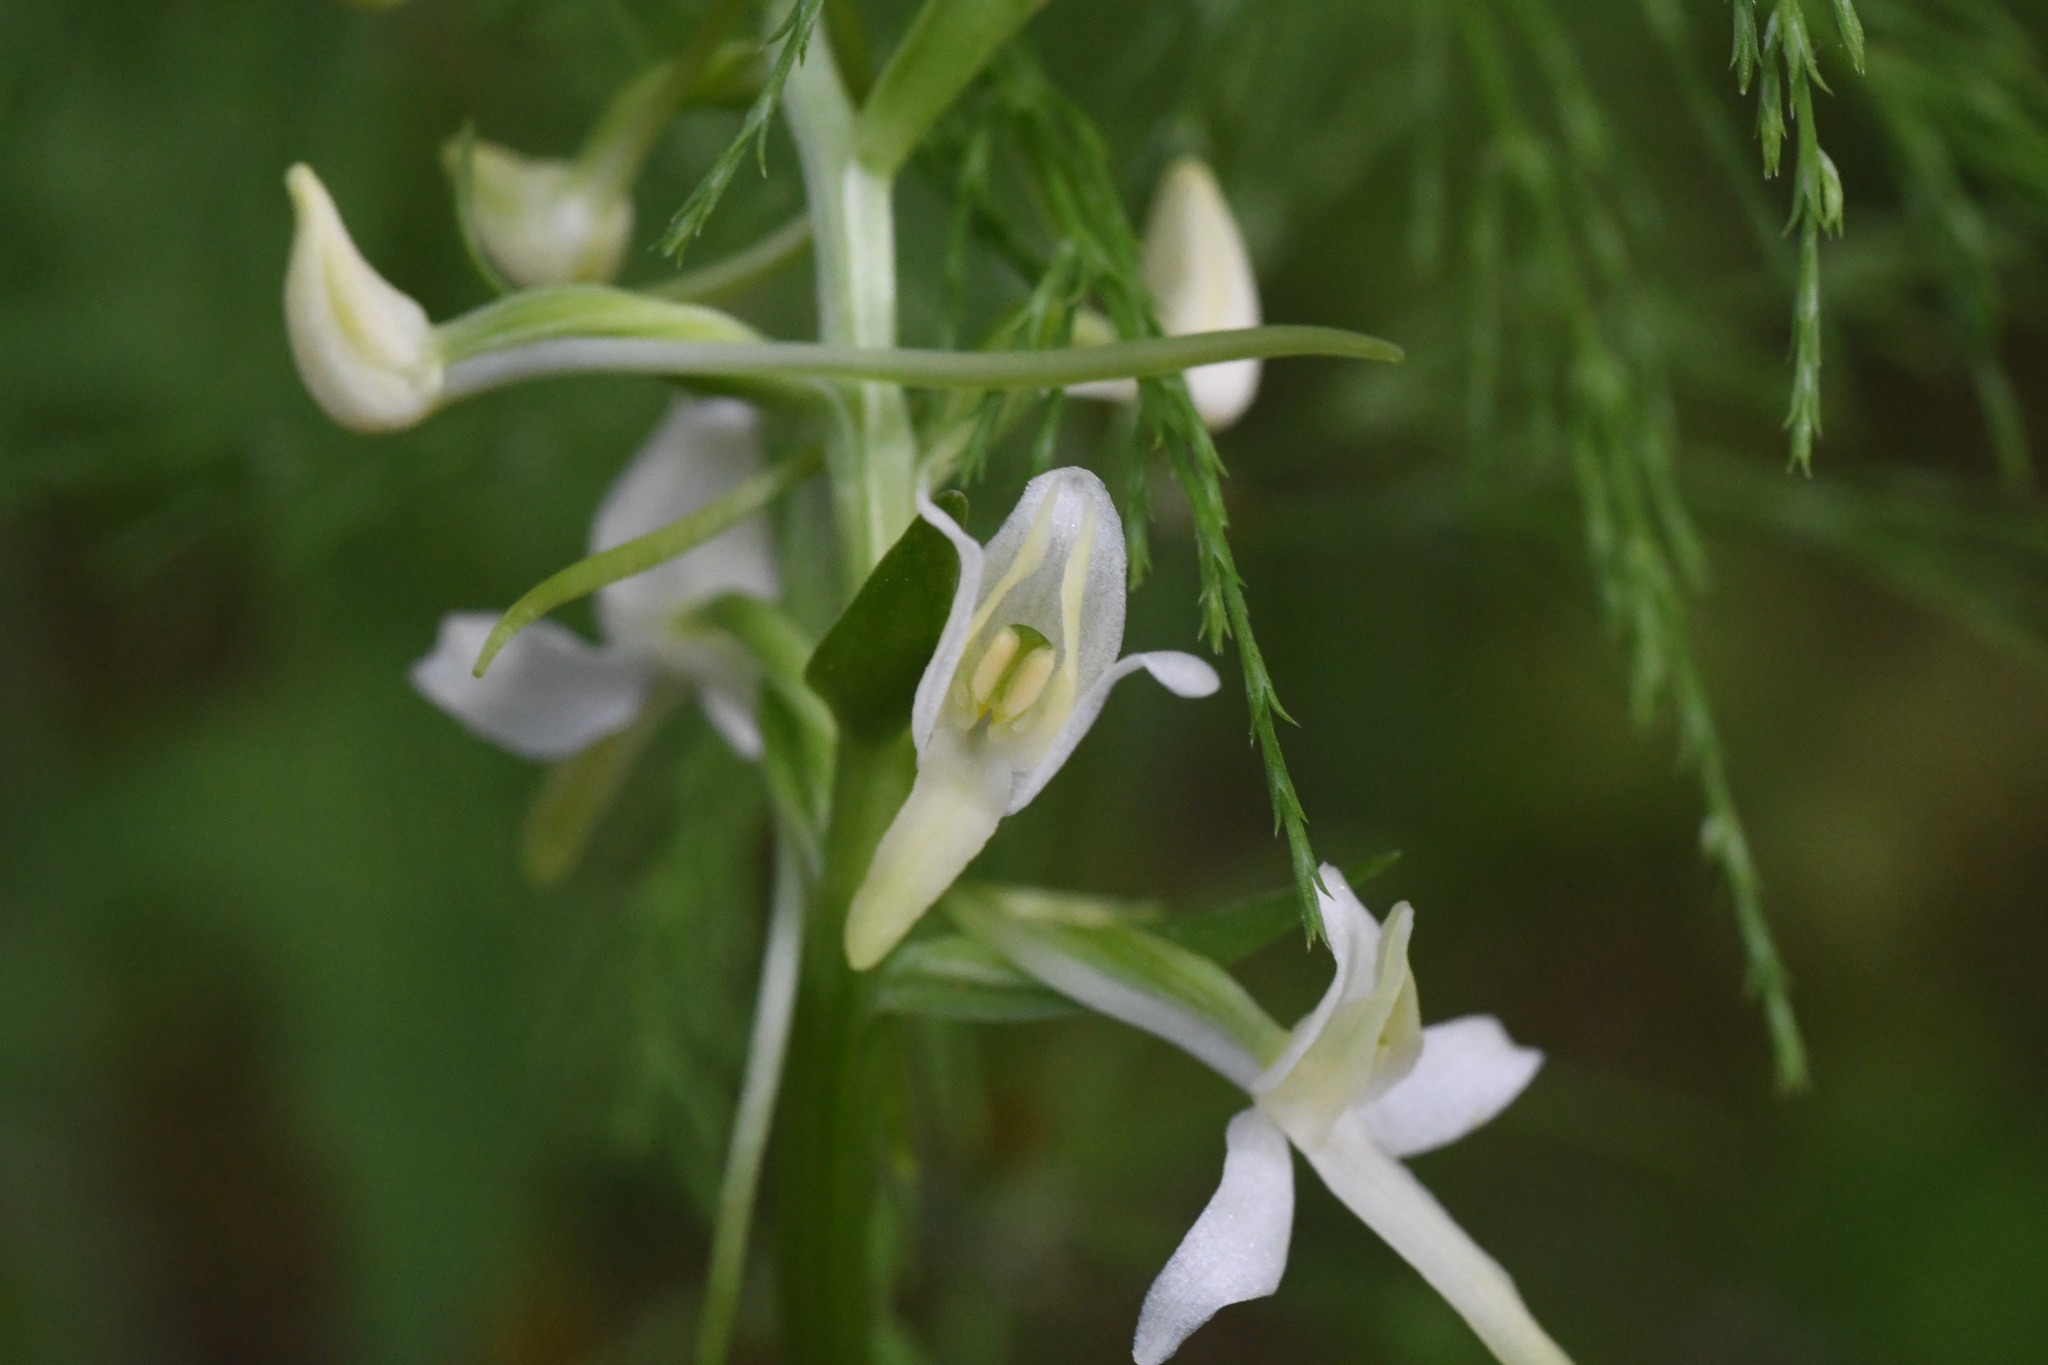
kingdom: Plantae
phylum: Tracheophyta
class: Liliopsida
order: Asparagales
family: Orchidaceae
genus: Platanthera
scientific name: Platanthera bifolia
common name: Lesser butterfly-orchid
